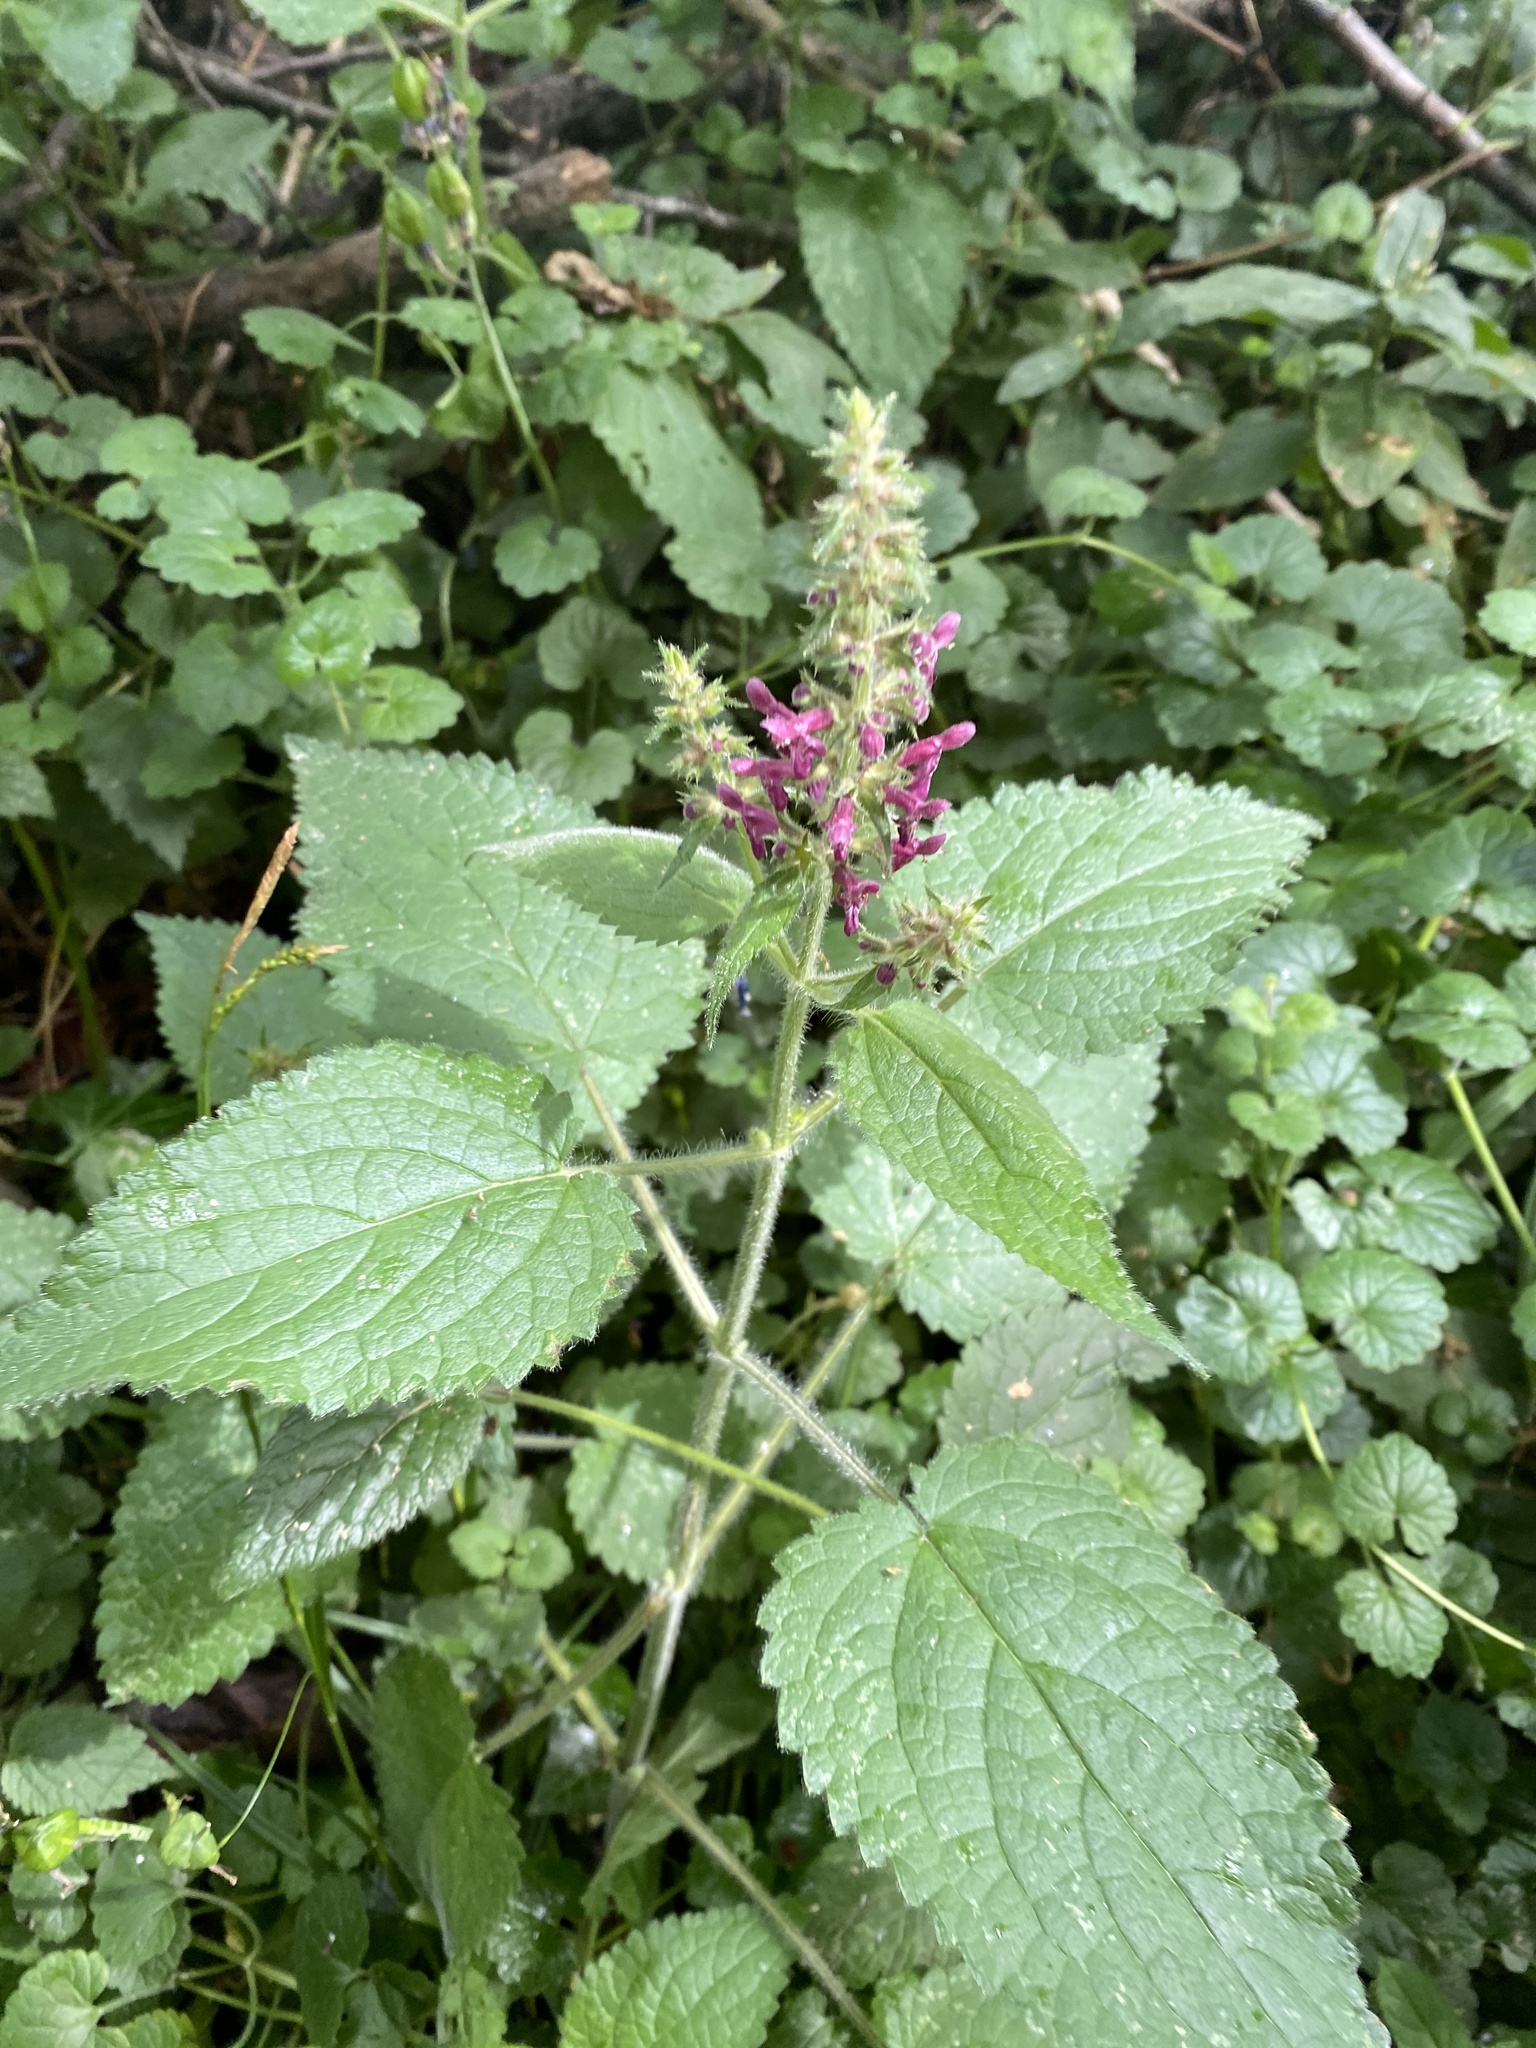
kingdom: Plantae
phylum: Tracheophyta
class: Magnoliopsida
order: Lamiales
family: Lamiaceae
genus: Stachys
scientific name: Stachys sylvatica
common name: Hedge woundwort
